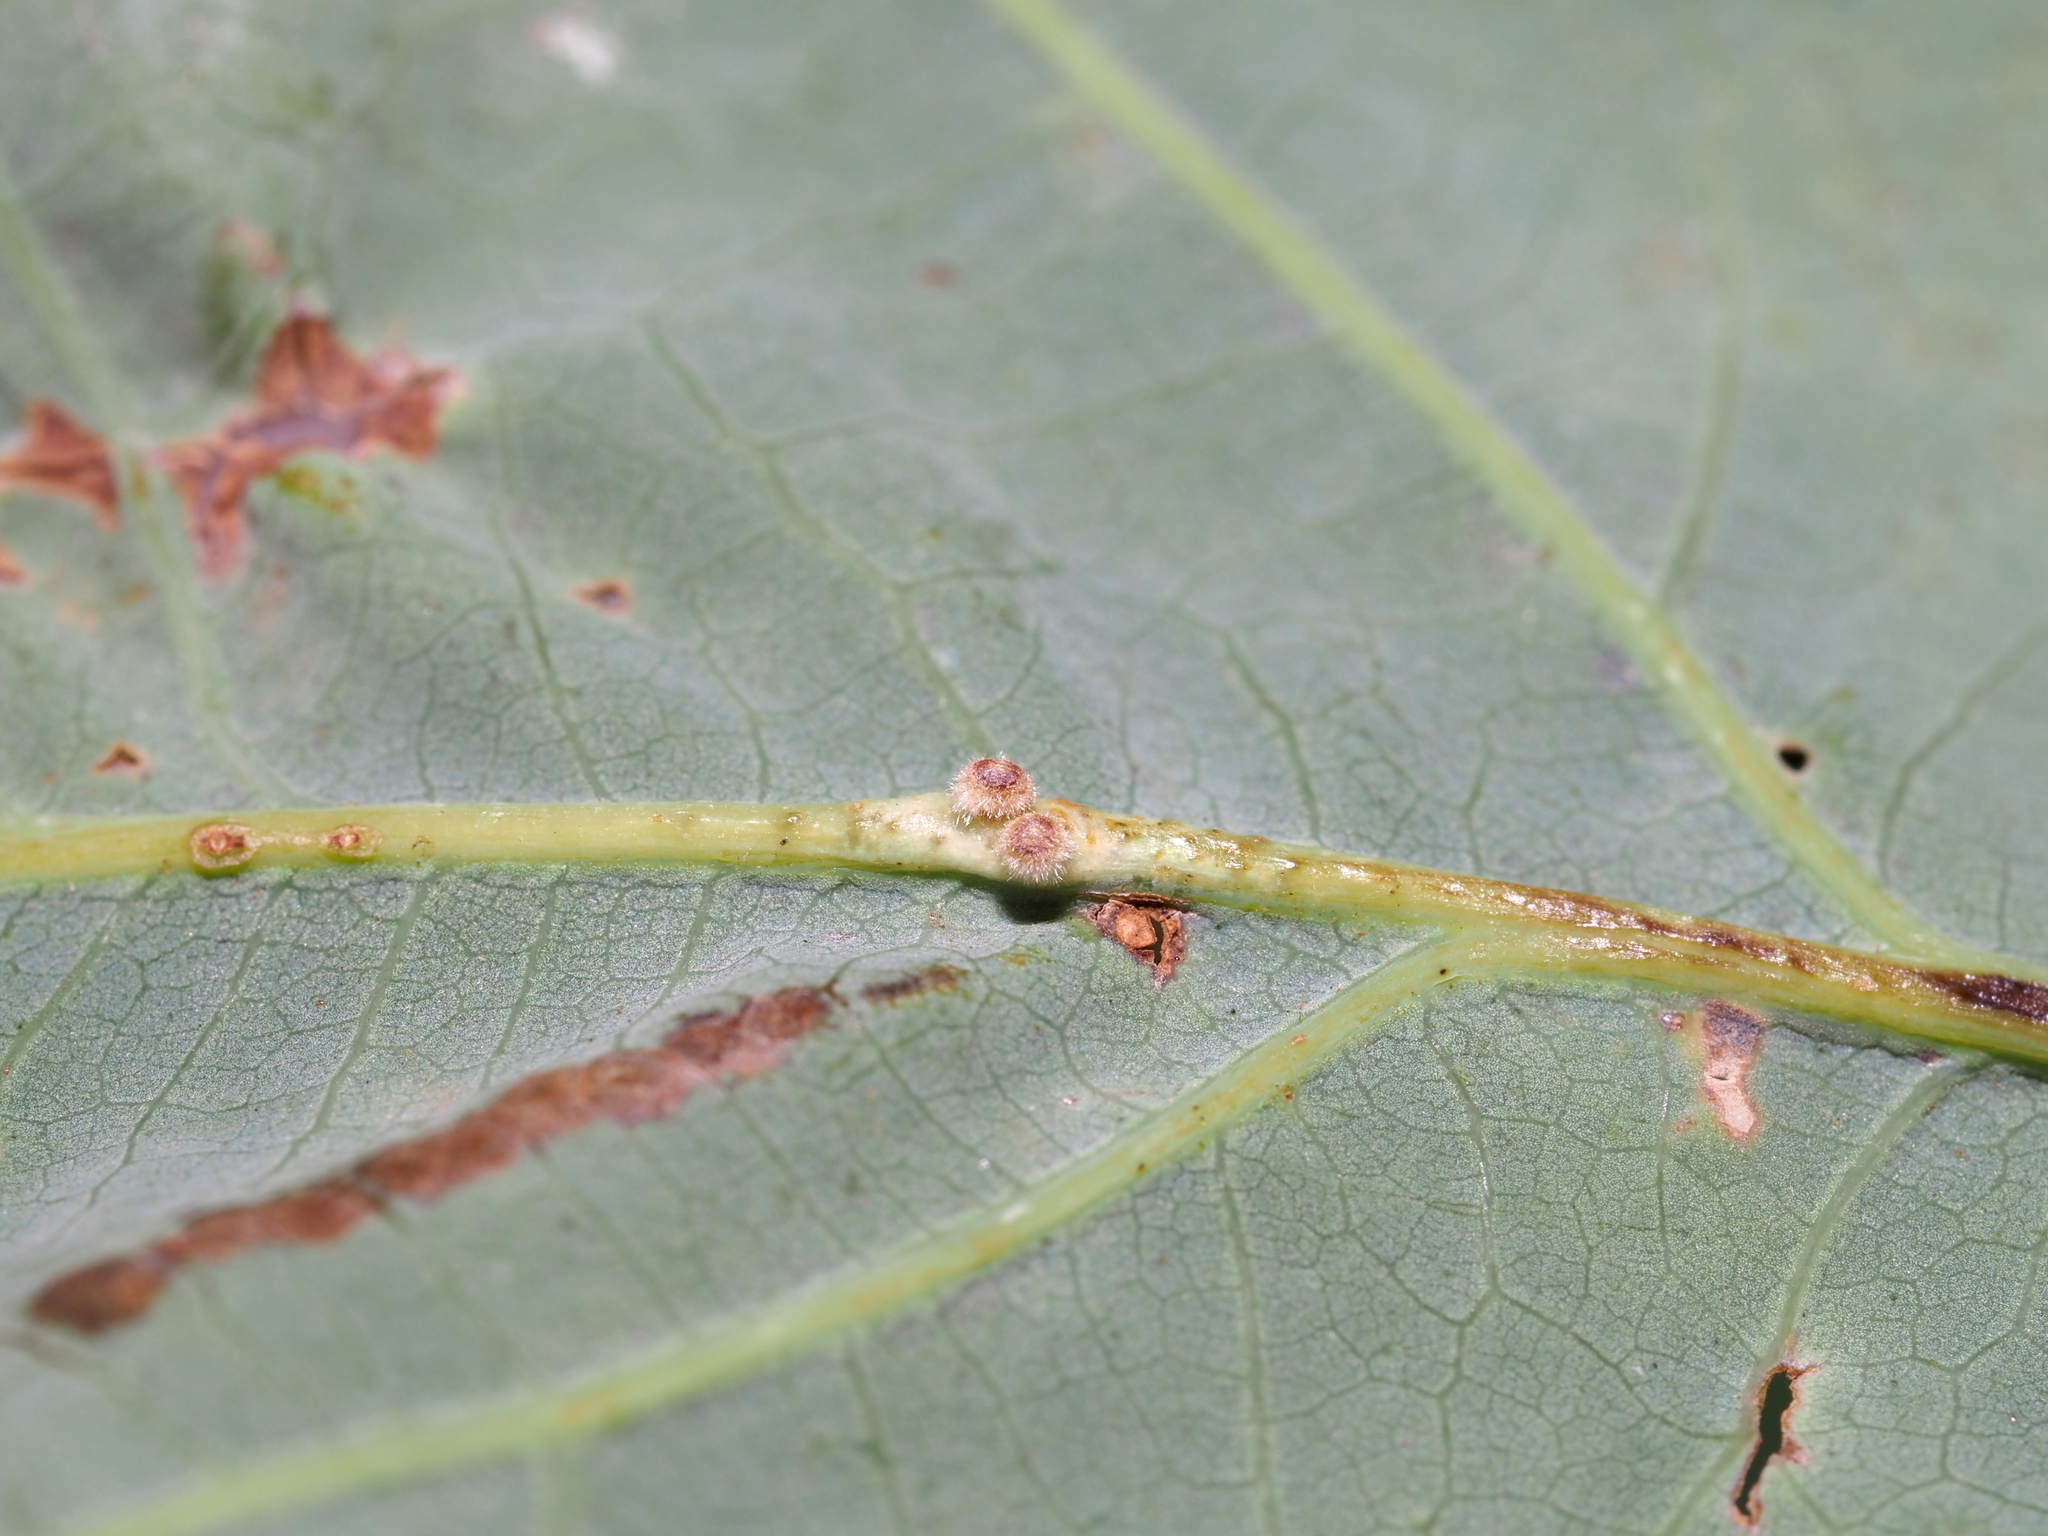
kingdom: Animalia
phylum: Arthropoda
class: Insecta
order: Hymenoptera
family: Cynipidae
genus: Andricus
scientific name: Andricus
